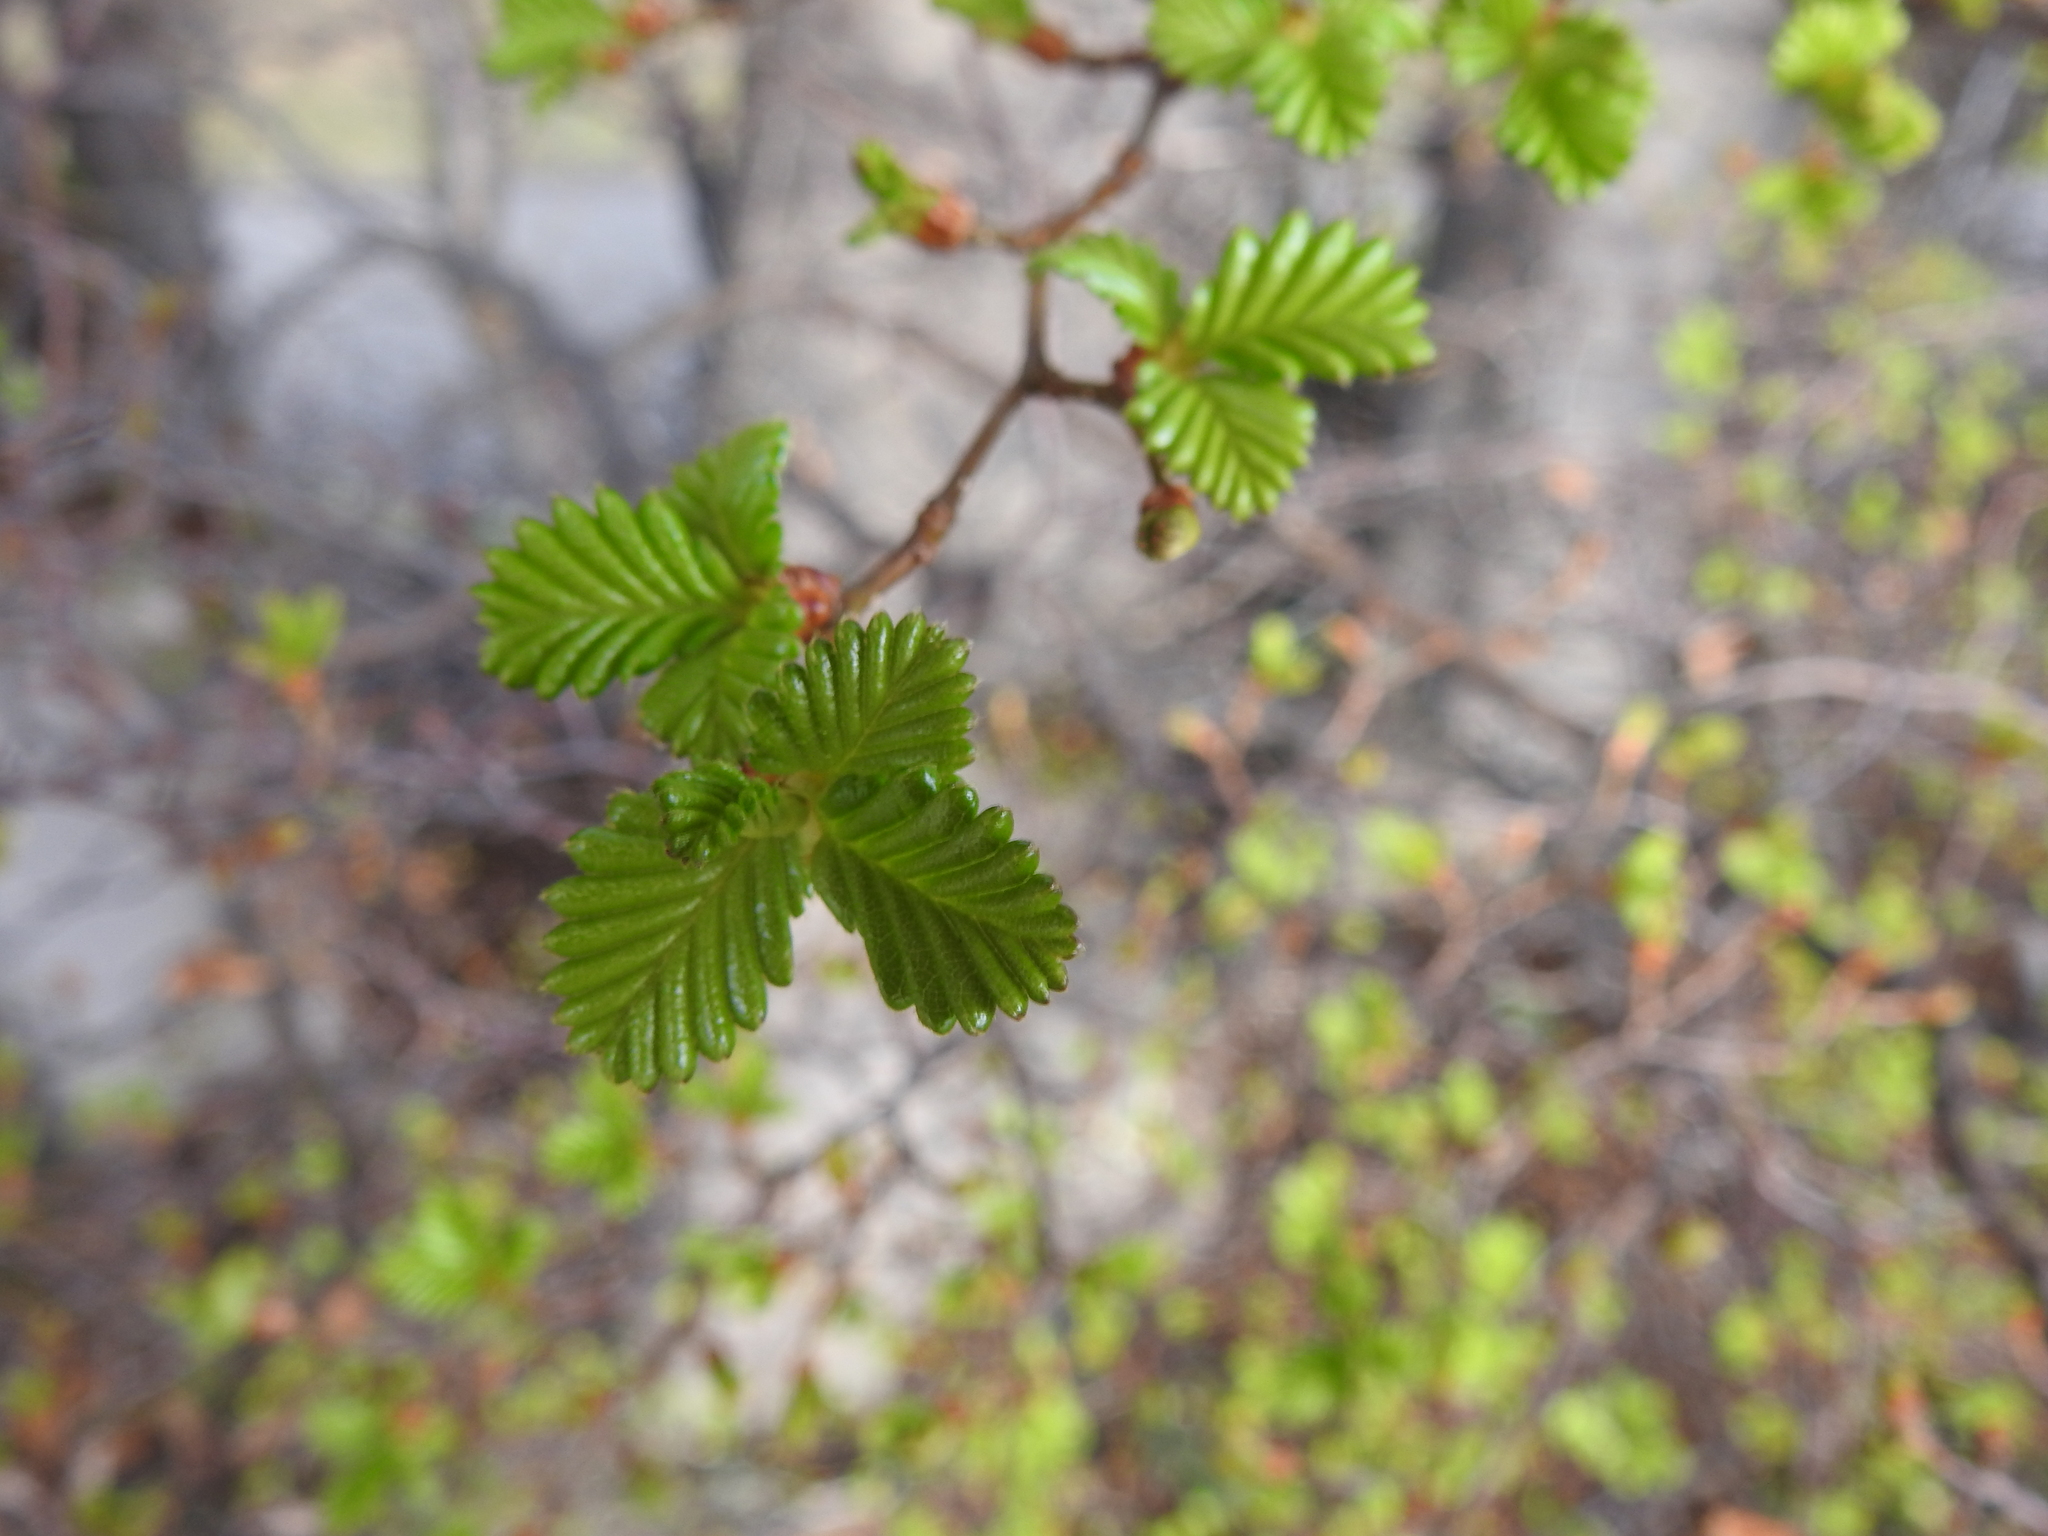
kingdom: Plantae
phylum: Tracheophyta
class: Magnoliopsida
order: Fagales
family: Nothofagaceae
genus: Nothofagus
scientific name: Nothofagus pumilio
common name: Lenga beech
